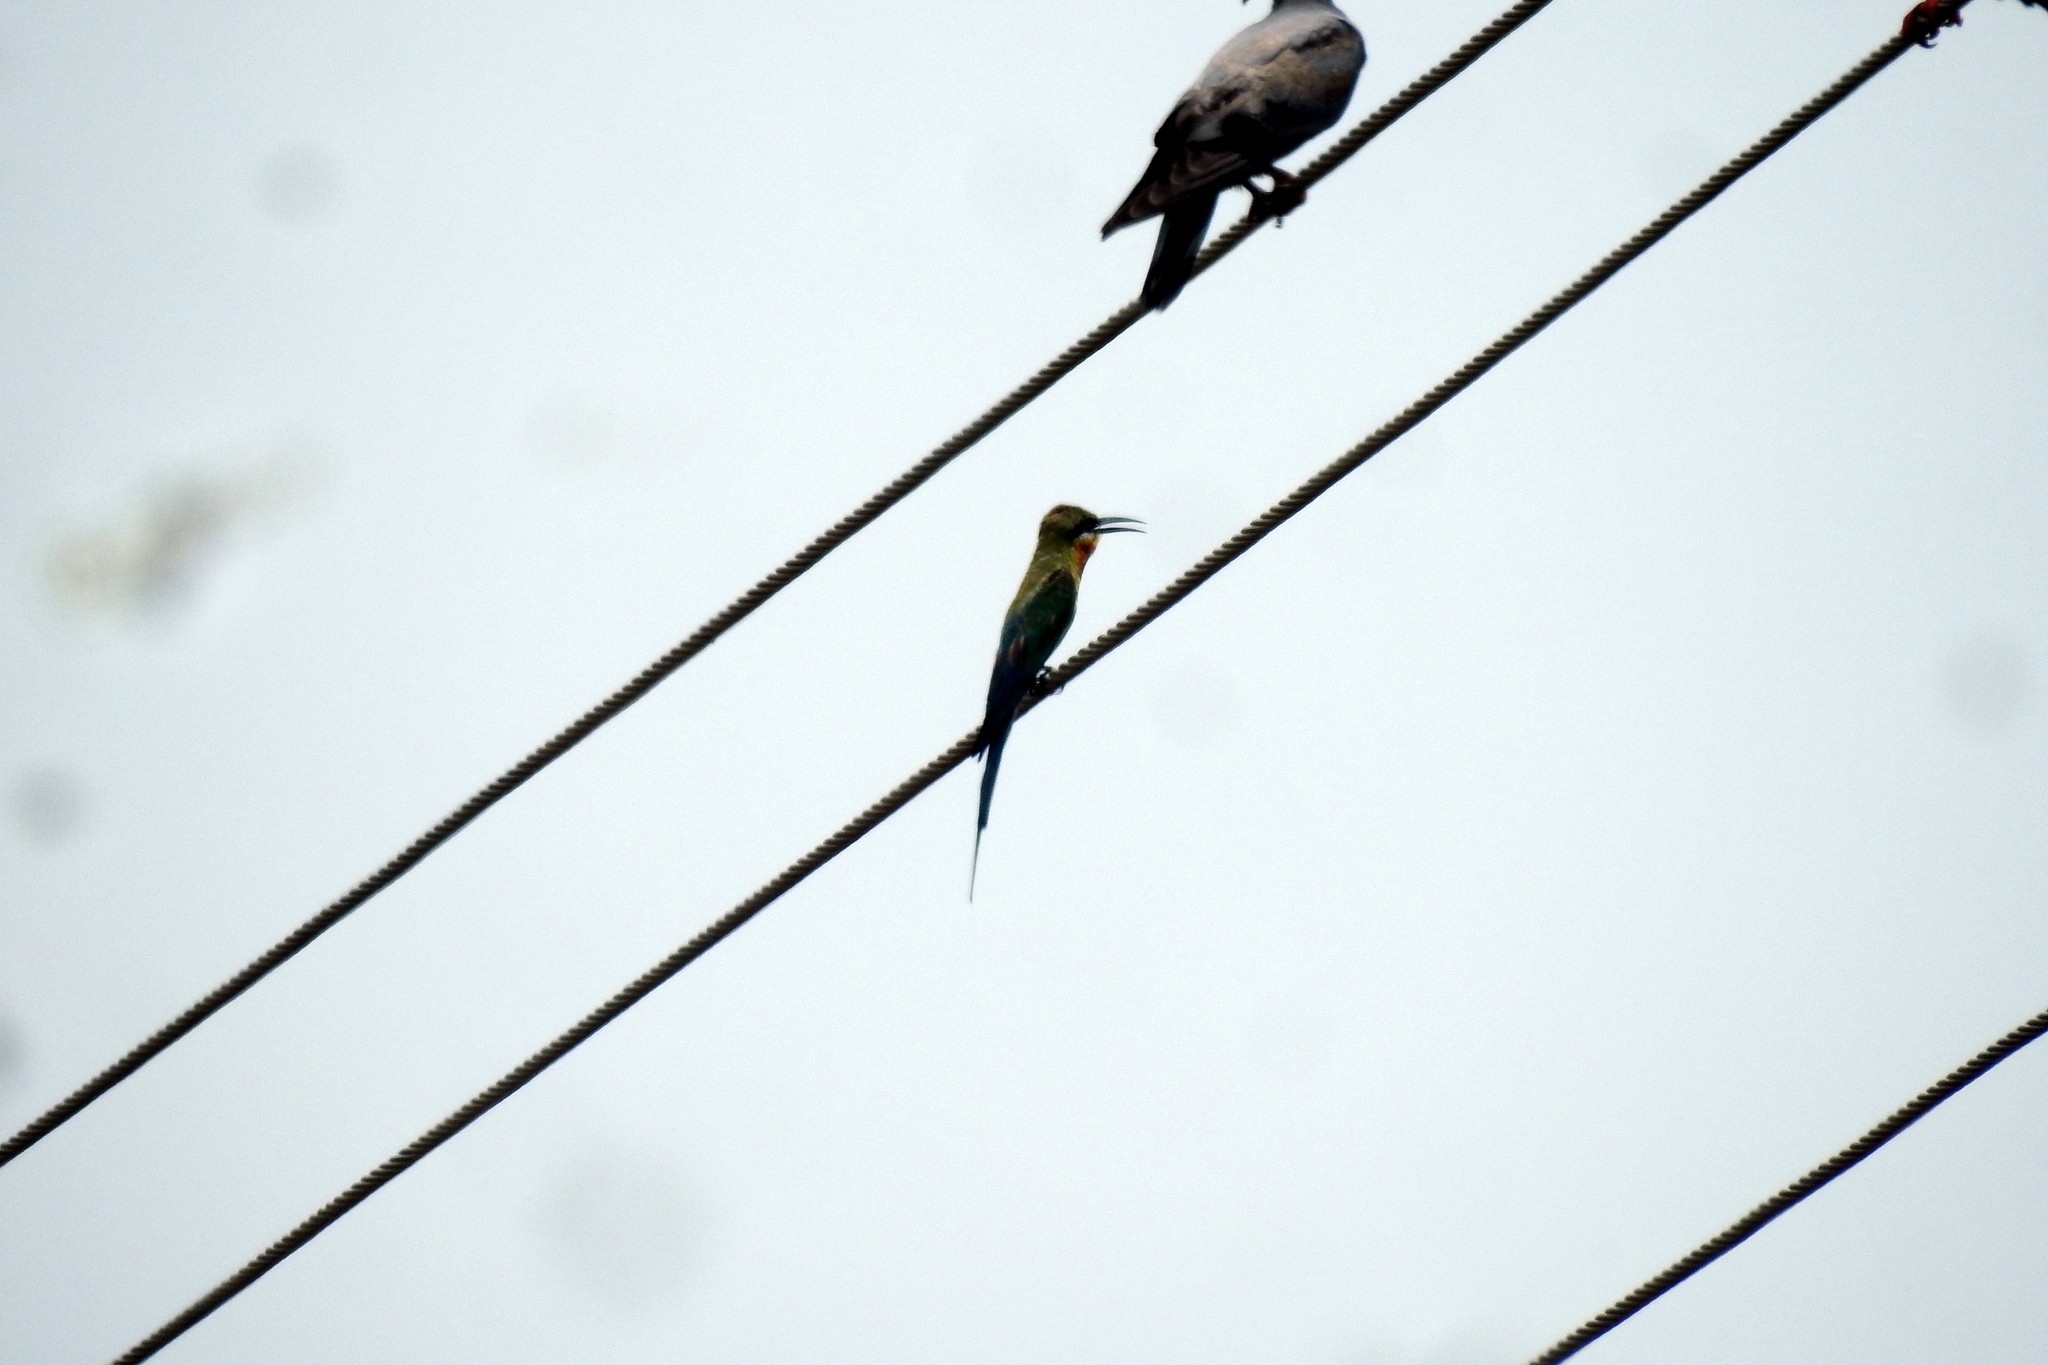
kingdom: Animalia
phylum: Chordata
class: Aves
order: Coraciiformes
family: Meropidae
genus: Merops
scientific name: Merops philippinus
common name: Blue-tailed bee-eater
